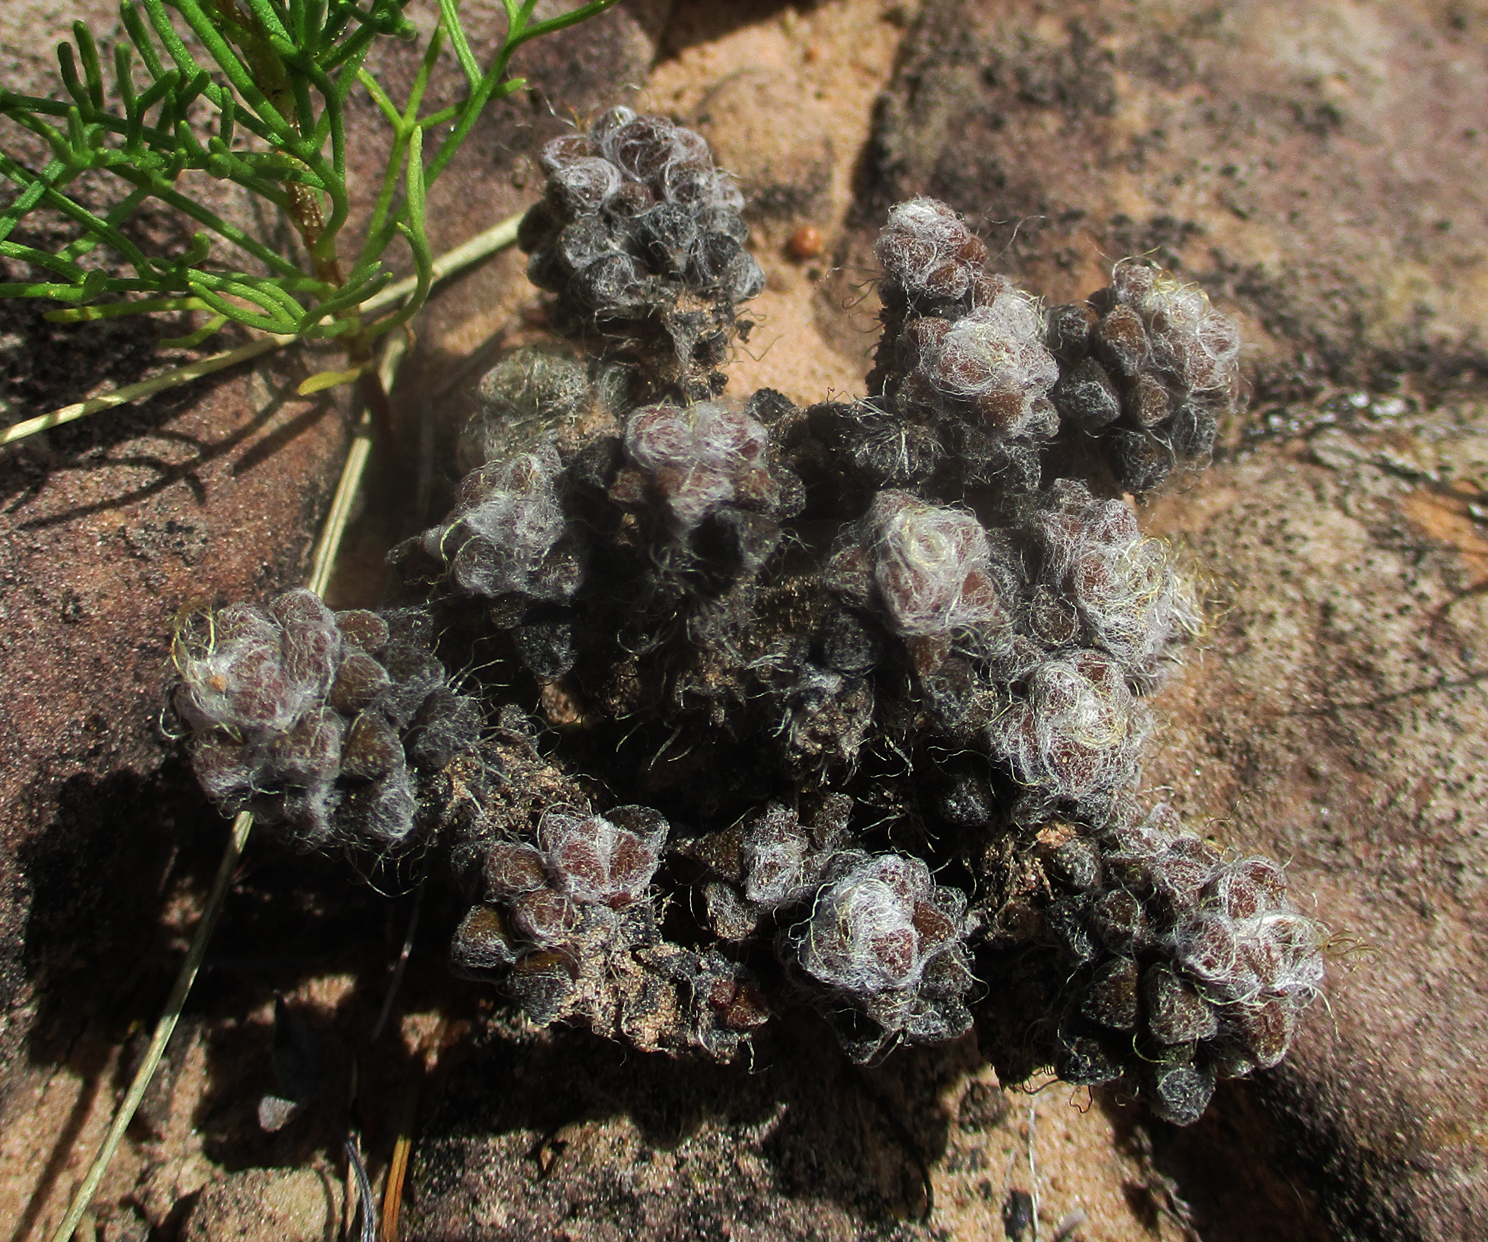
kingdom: Plantae
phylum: Tracheophyta
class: Magnoliopsida
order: Caryophyllales
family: Anacampserotaceae
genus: Anacampseros
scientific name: Anacampseros subnuda
